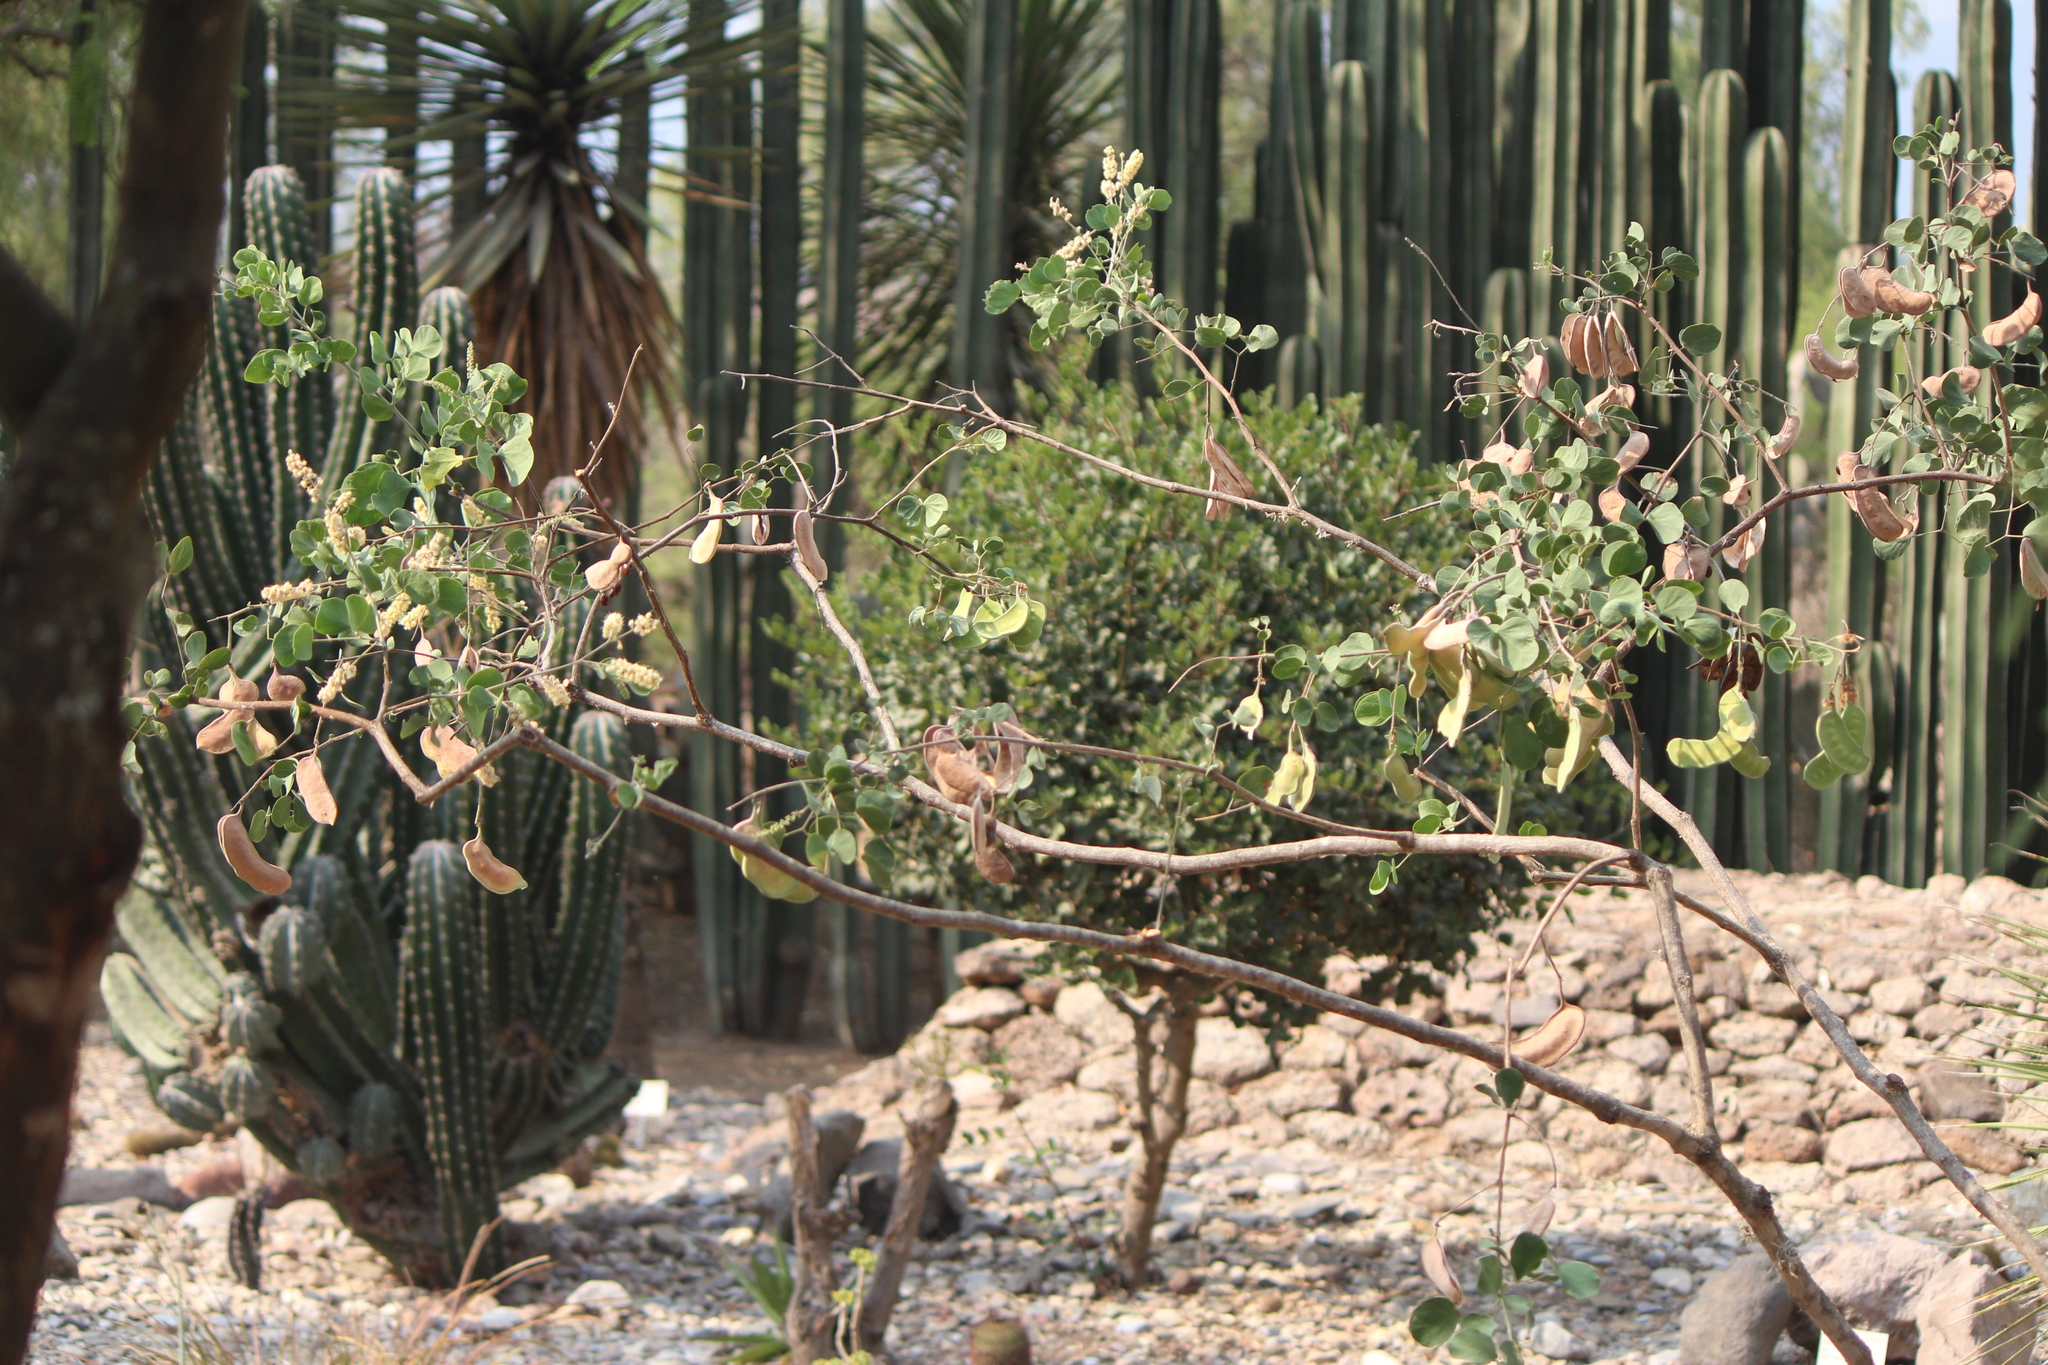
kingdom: Plantae
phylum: Tracheophyta
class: Magnoliopsida
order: Fabales
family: Fabaceae
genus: Senegalia
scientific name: Senegalia crassifolia
